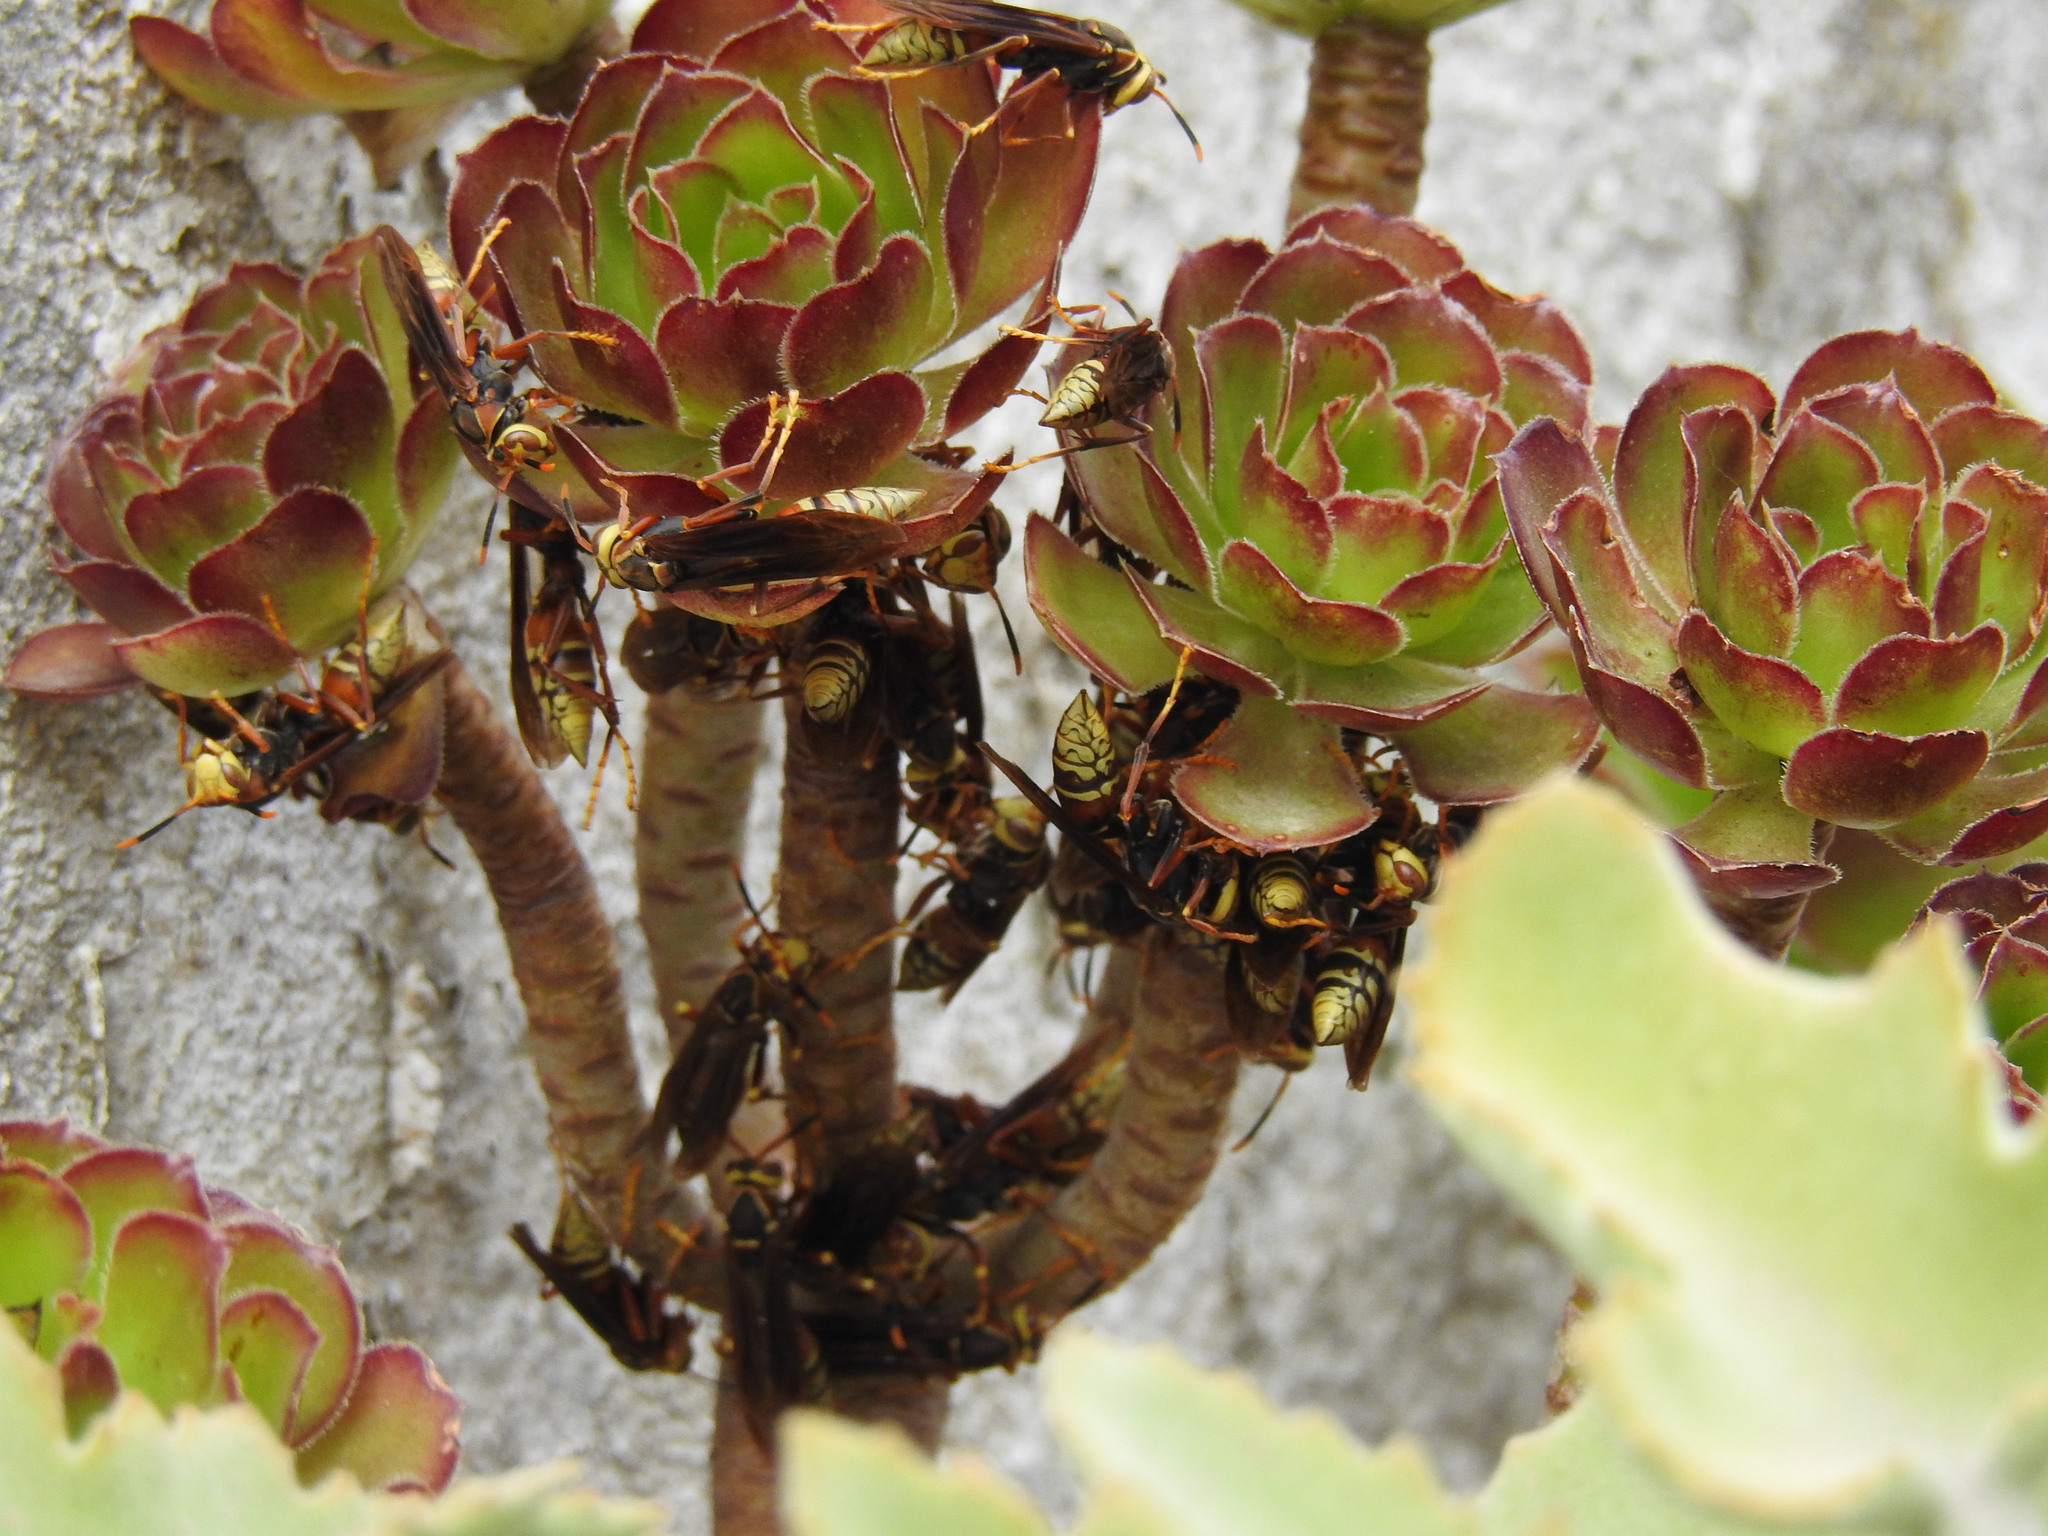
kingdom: Animalia
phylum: Arthropoda
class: Insecta
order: Hymenoptera
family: Eumenidae
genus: Polistes
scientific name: Polistes buyssoni
